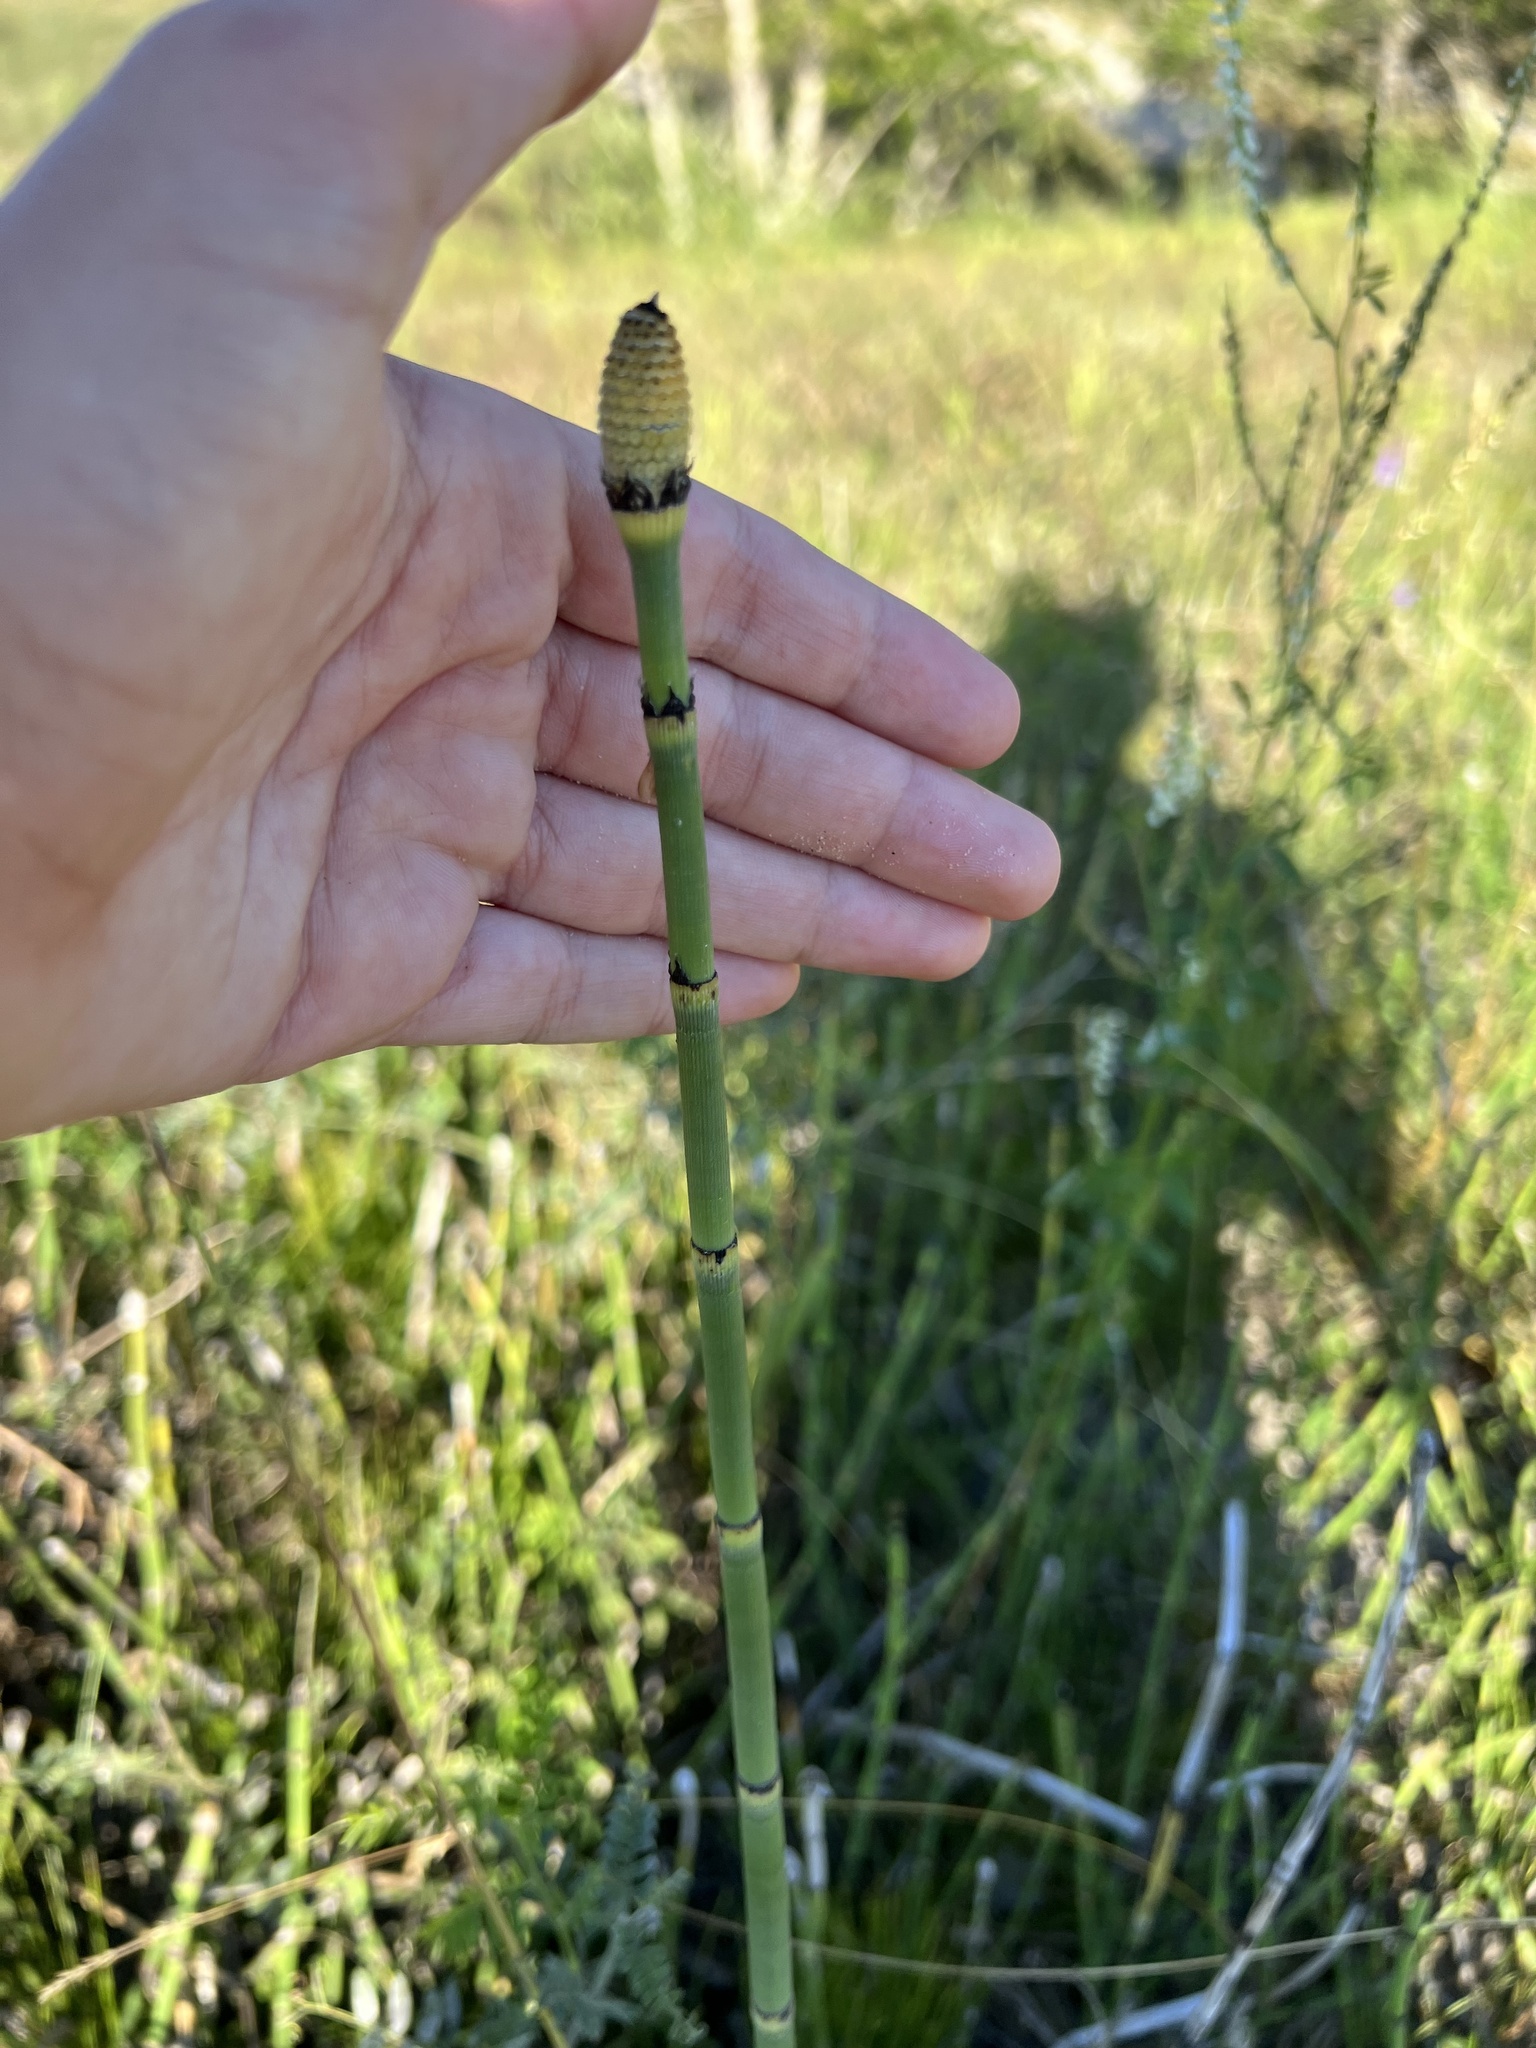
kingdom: Plantae
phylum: Tracheophyta
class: Polypodiopsida
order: Equisetales
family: Equisetaceae
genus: Equisetum
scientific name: Equisetum hyemale
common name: Rough horsetail
